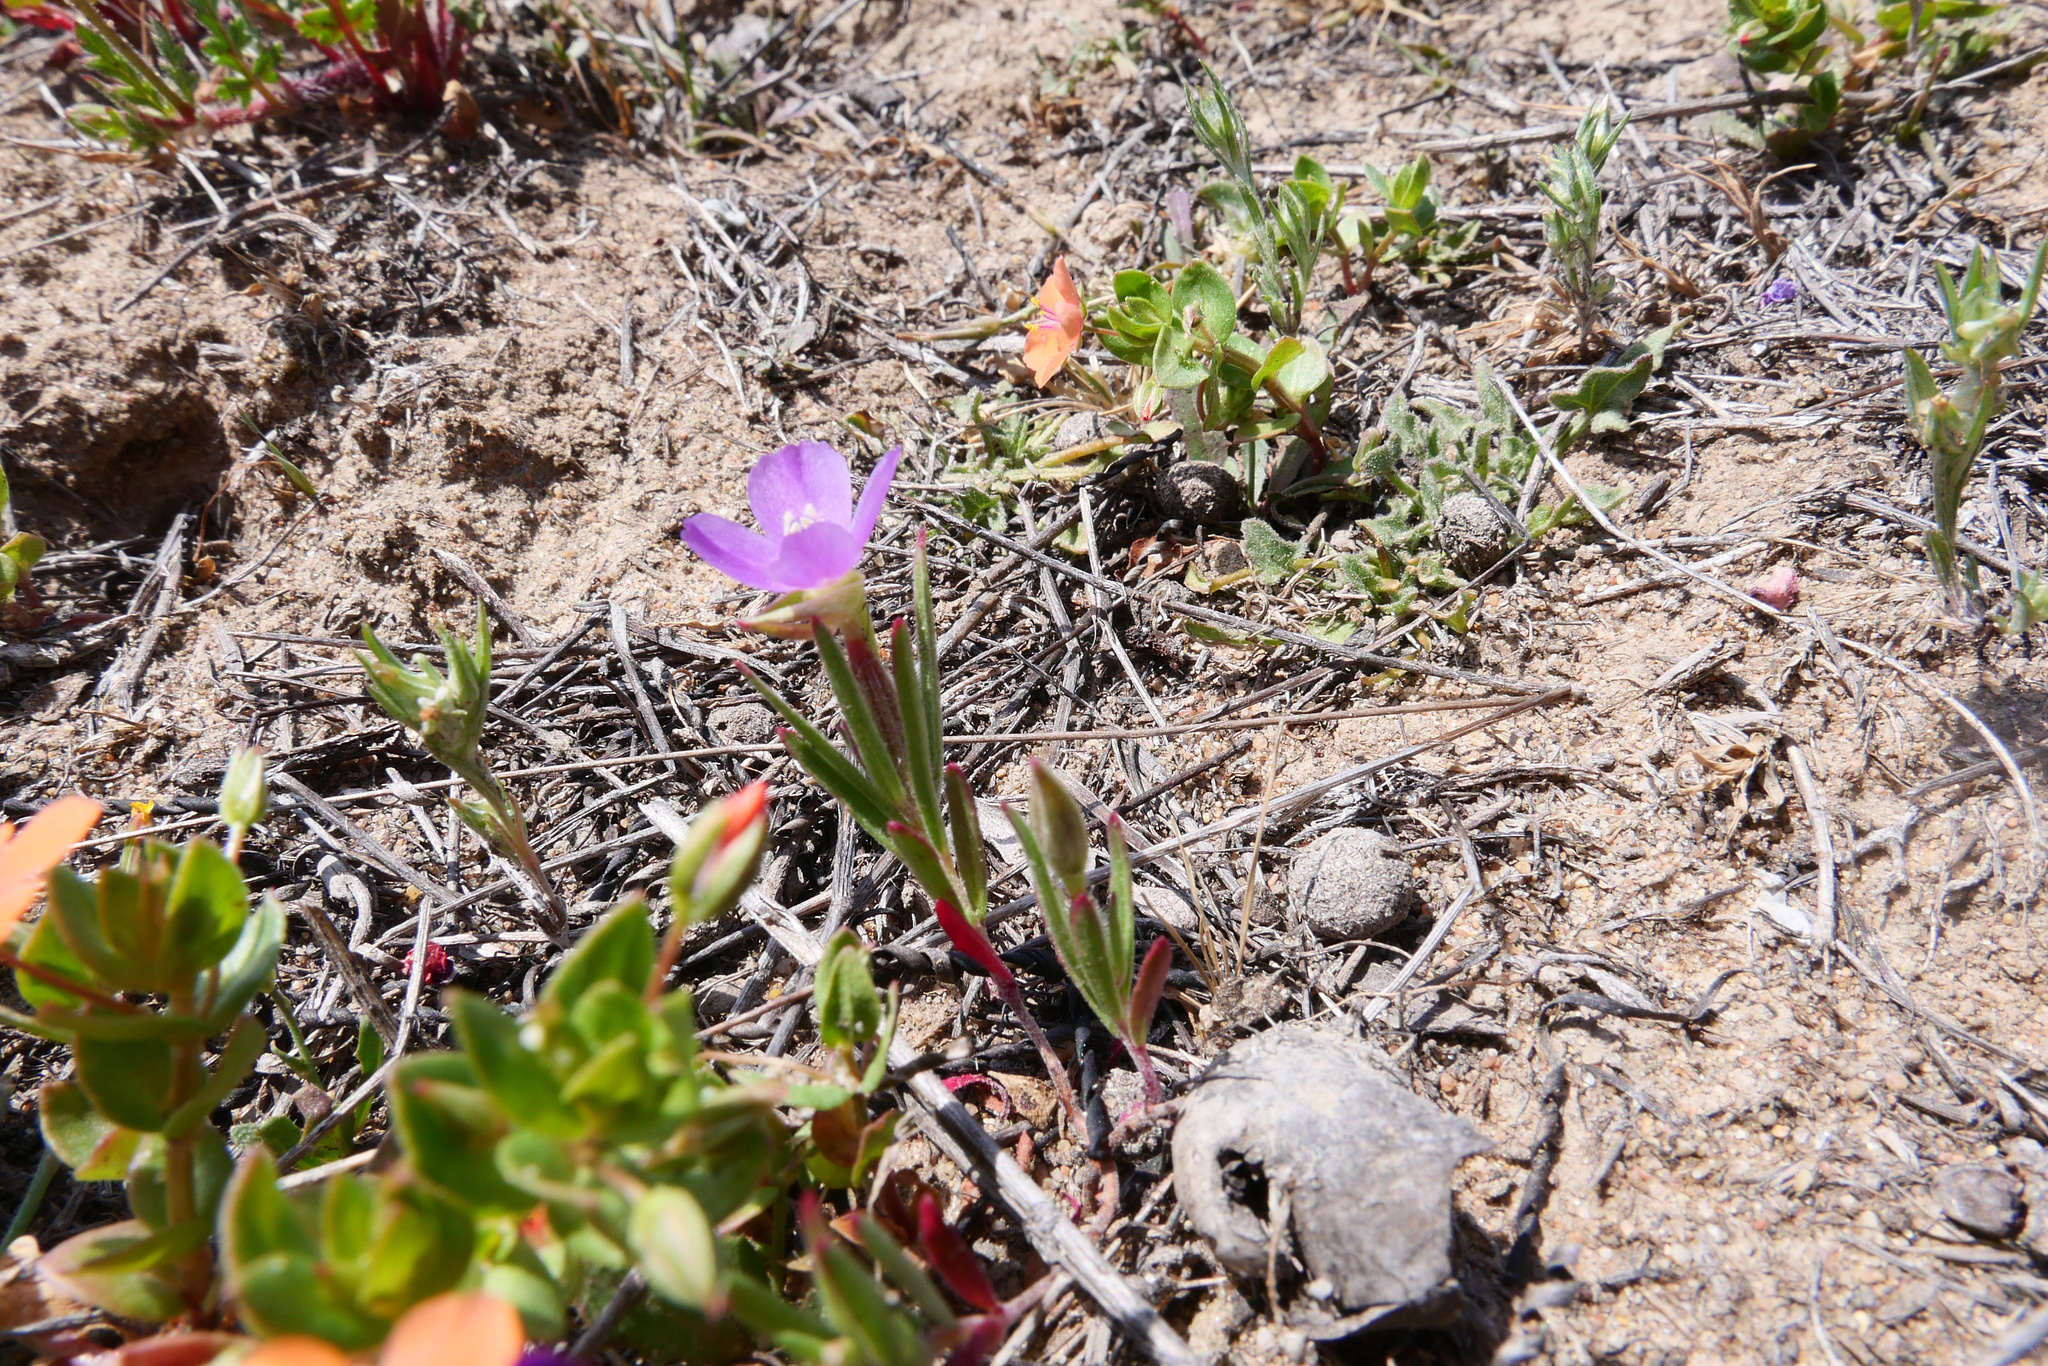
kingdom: Plantae
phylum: Tracheophyta
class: Magnoliopsida
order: Myrtales
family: Onagraceae
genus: Clarkia
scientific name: Clarkia purpurea
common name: Purple clarkia
